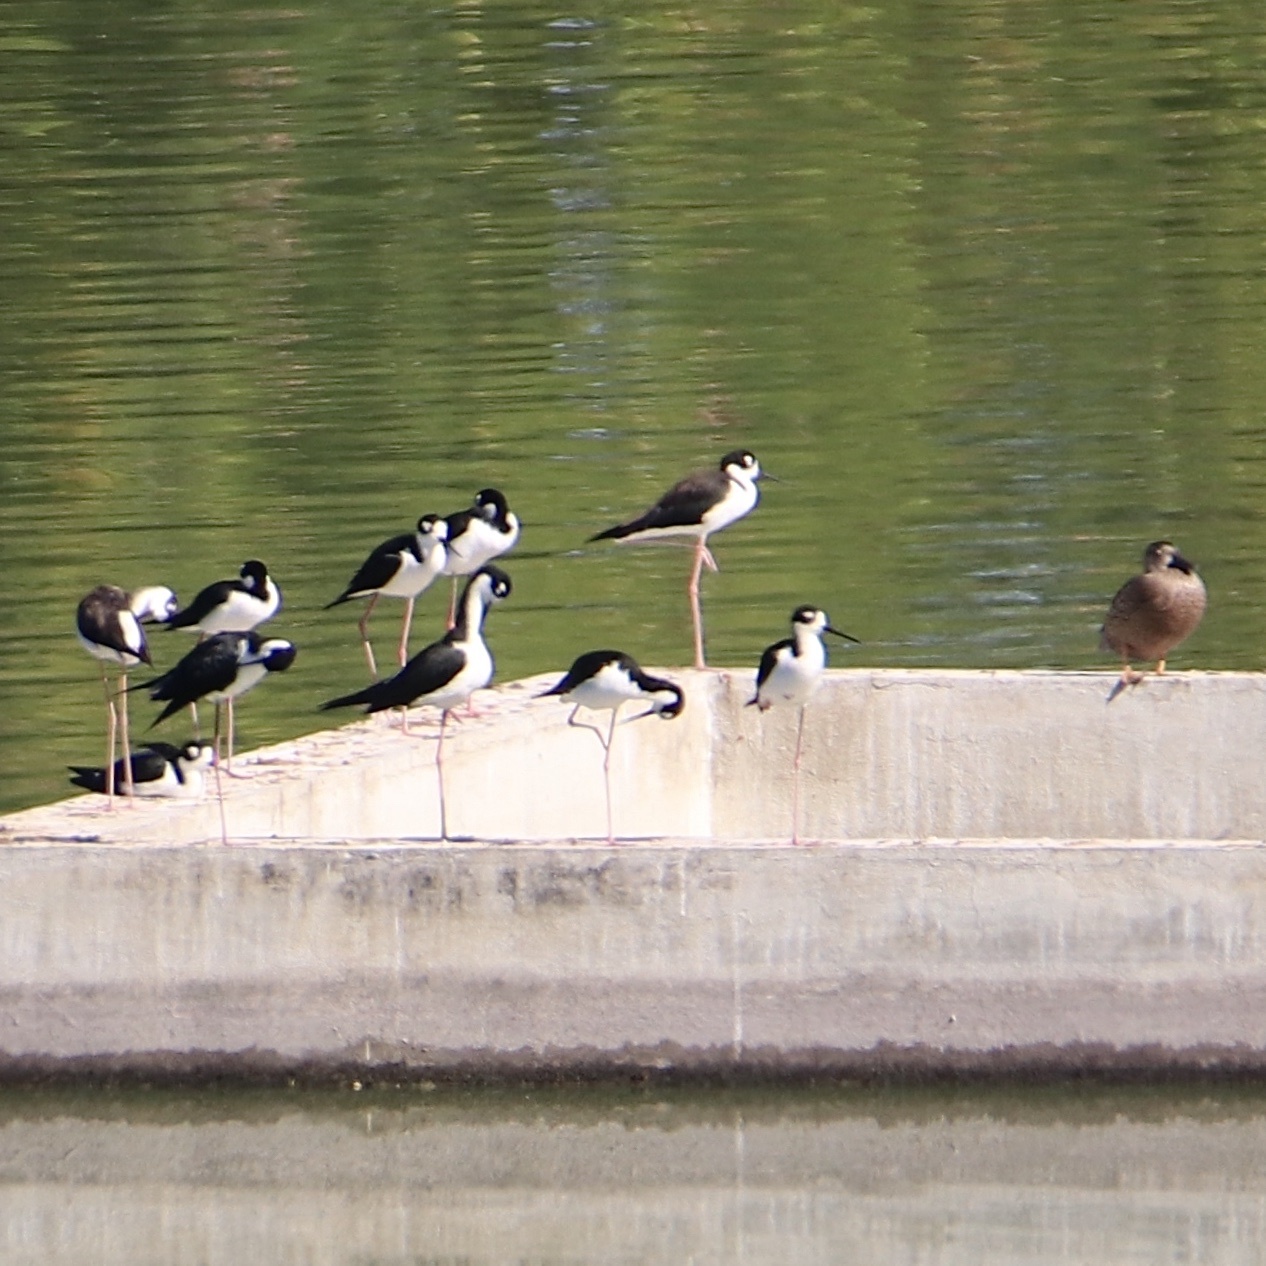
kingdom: Animalia
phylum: Chordata
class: Aves
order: Charadriiformes
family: Recurvirostridae
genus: Himantopus
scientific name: Himantopus mexicanus
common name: Black-necked stilt
